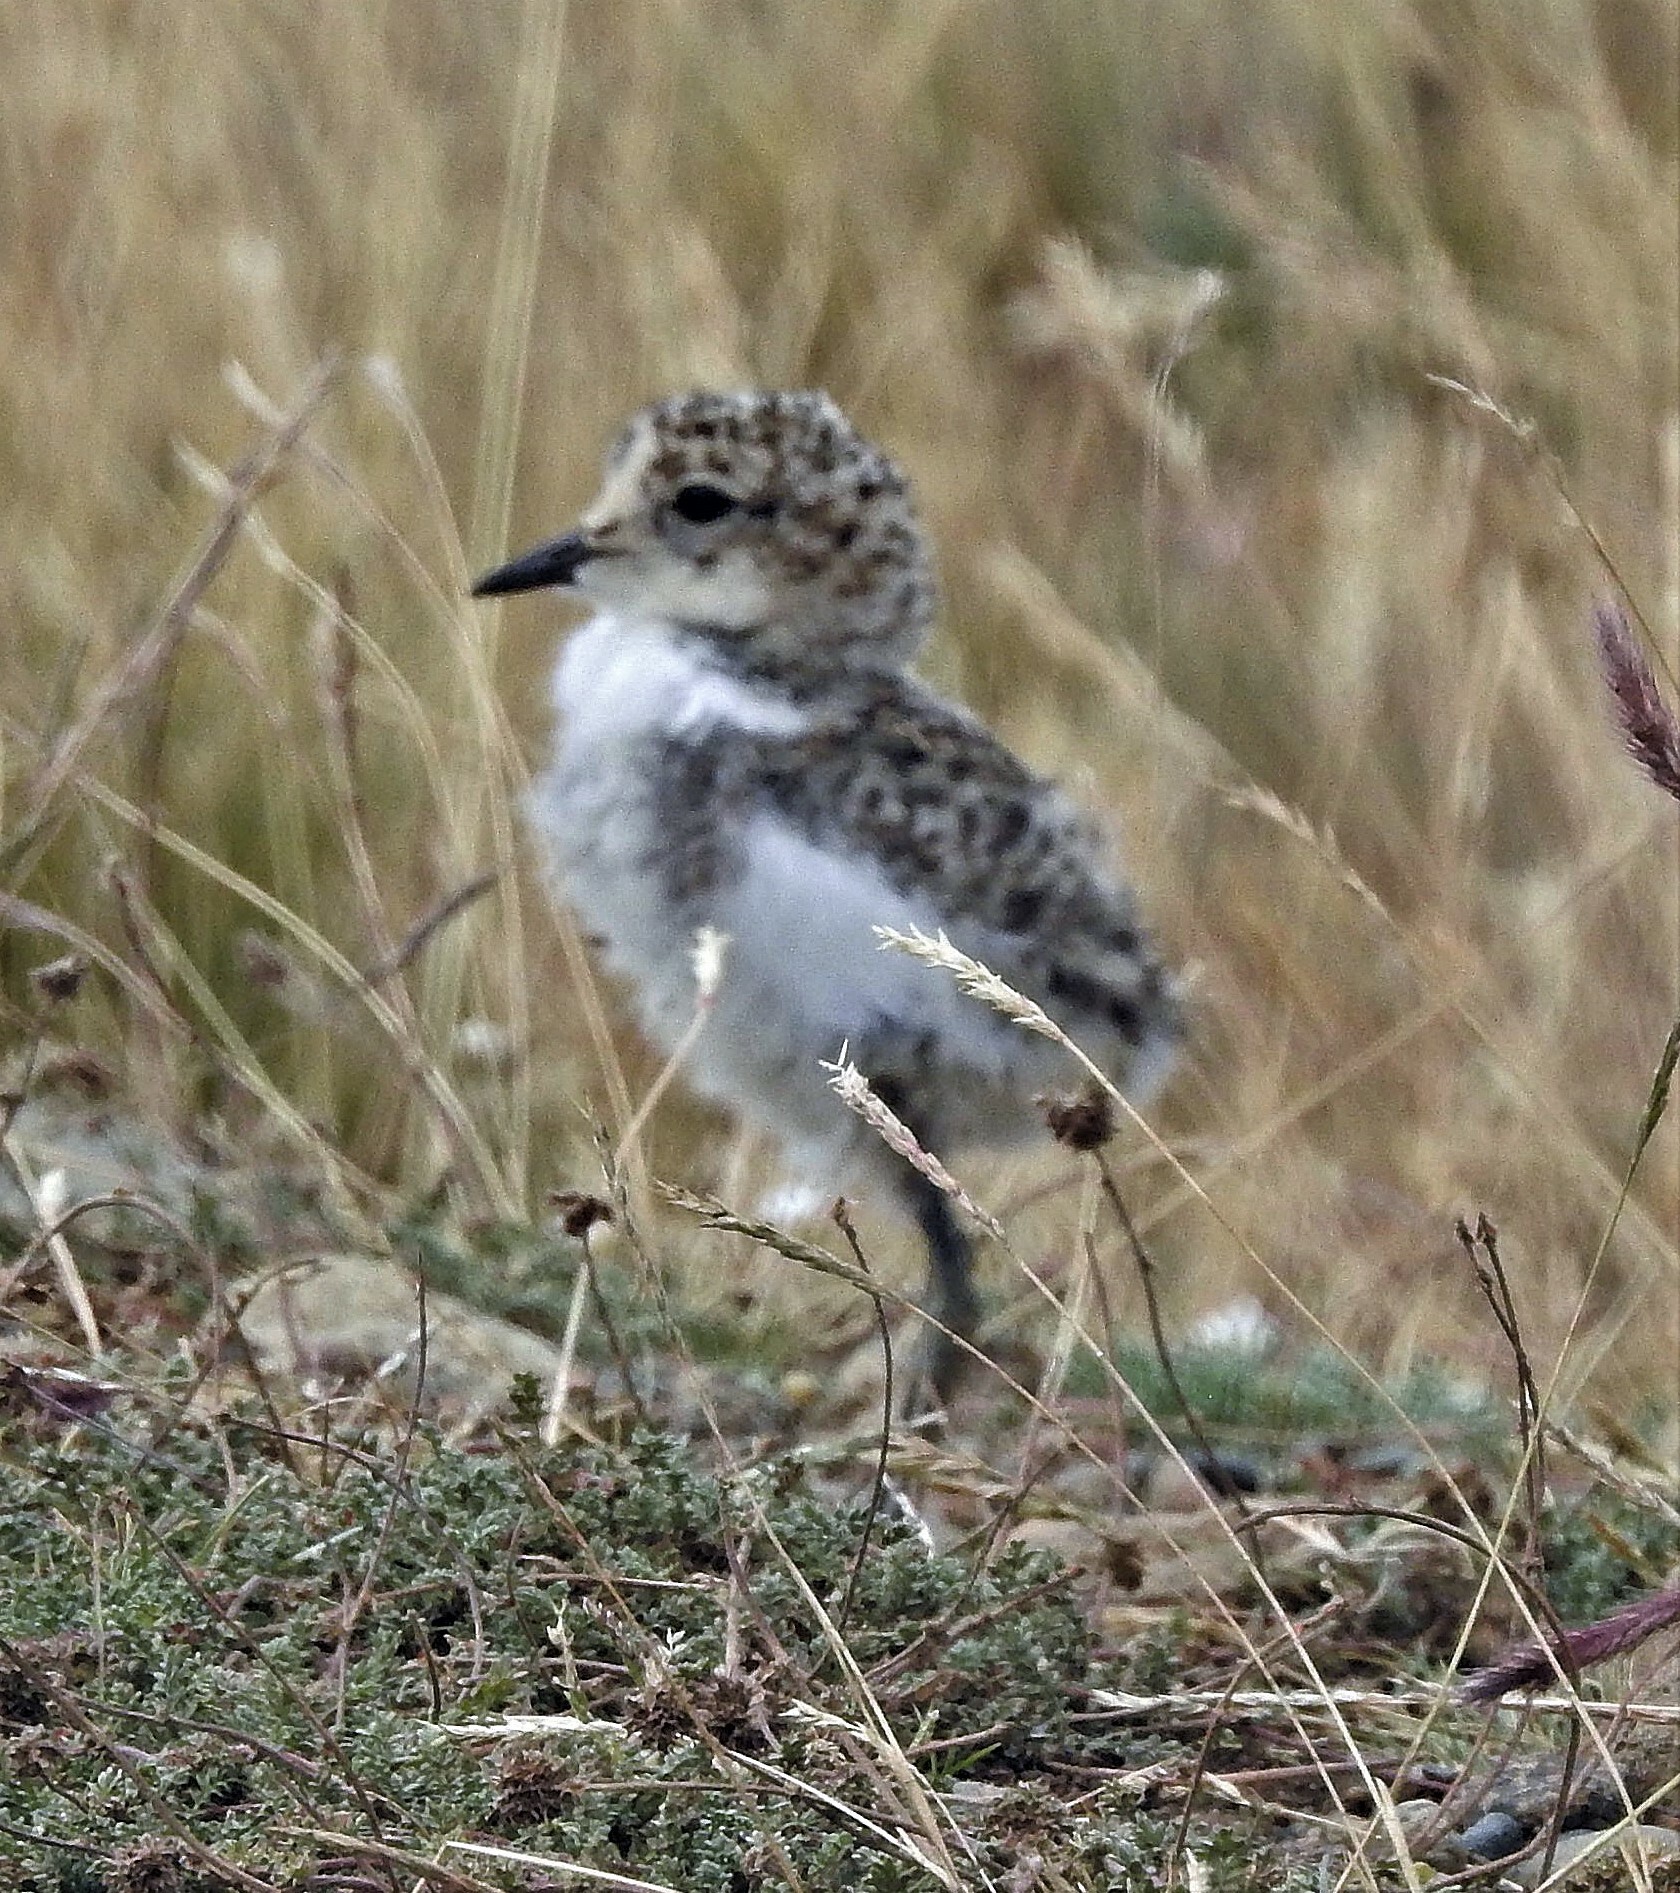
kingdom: Animalia
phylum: Chordata
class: Aves
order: Charadriiformes
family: Charadriidae
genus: Anarhynchus
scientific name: Anarhynchus
